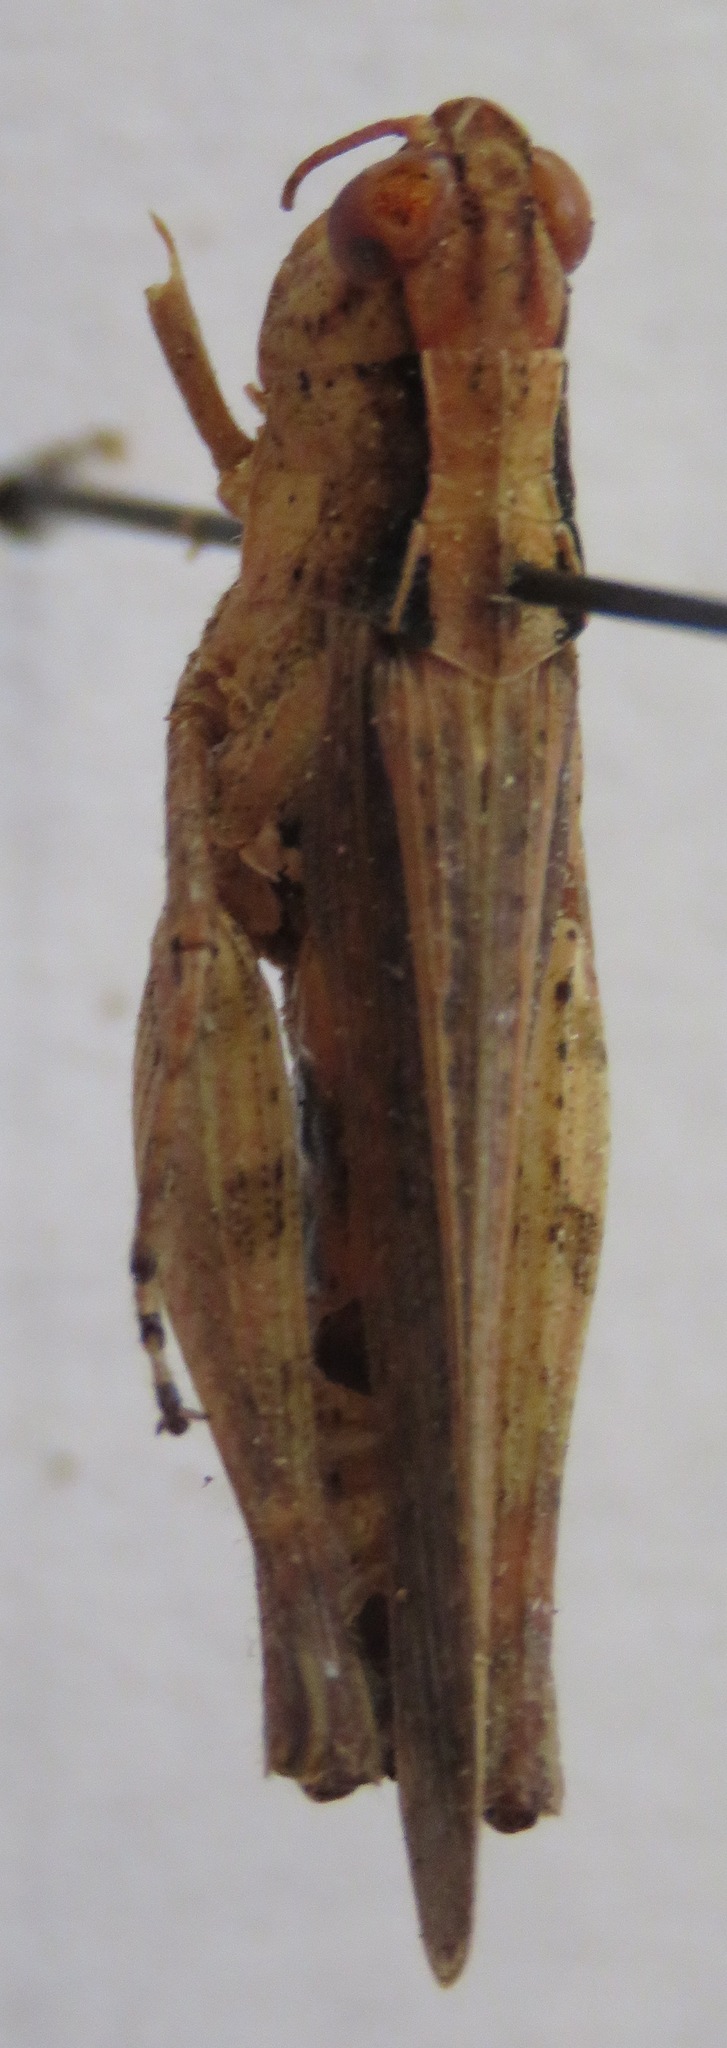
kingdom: Animalia
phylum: Arthropoda
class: Insecta
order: Orthoptera
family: Acrididae
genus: Orphulella
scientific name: Orphulella punctata
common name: Slant-faced grasshopper
